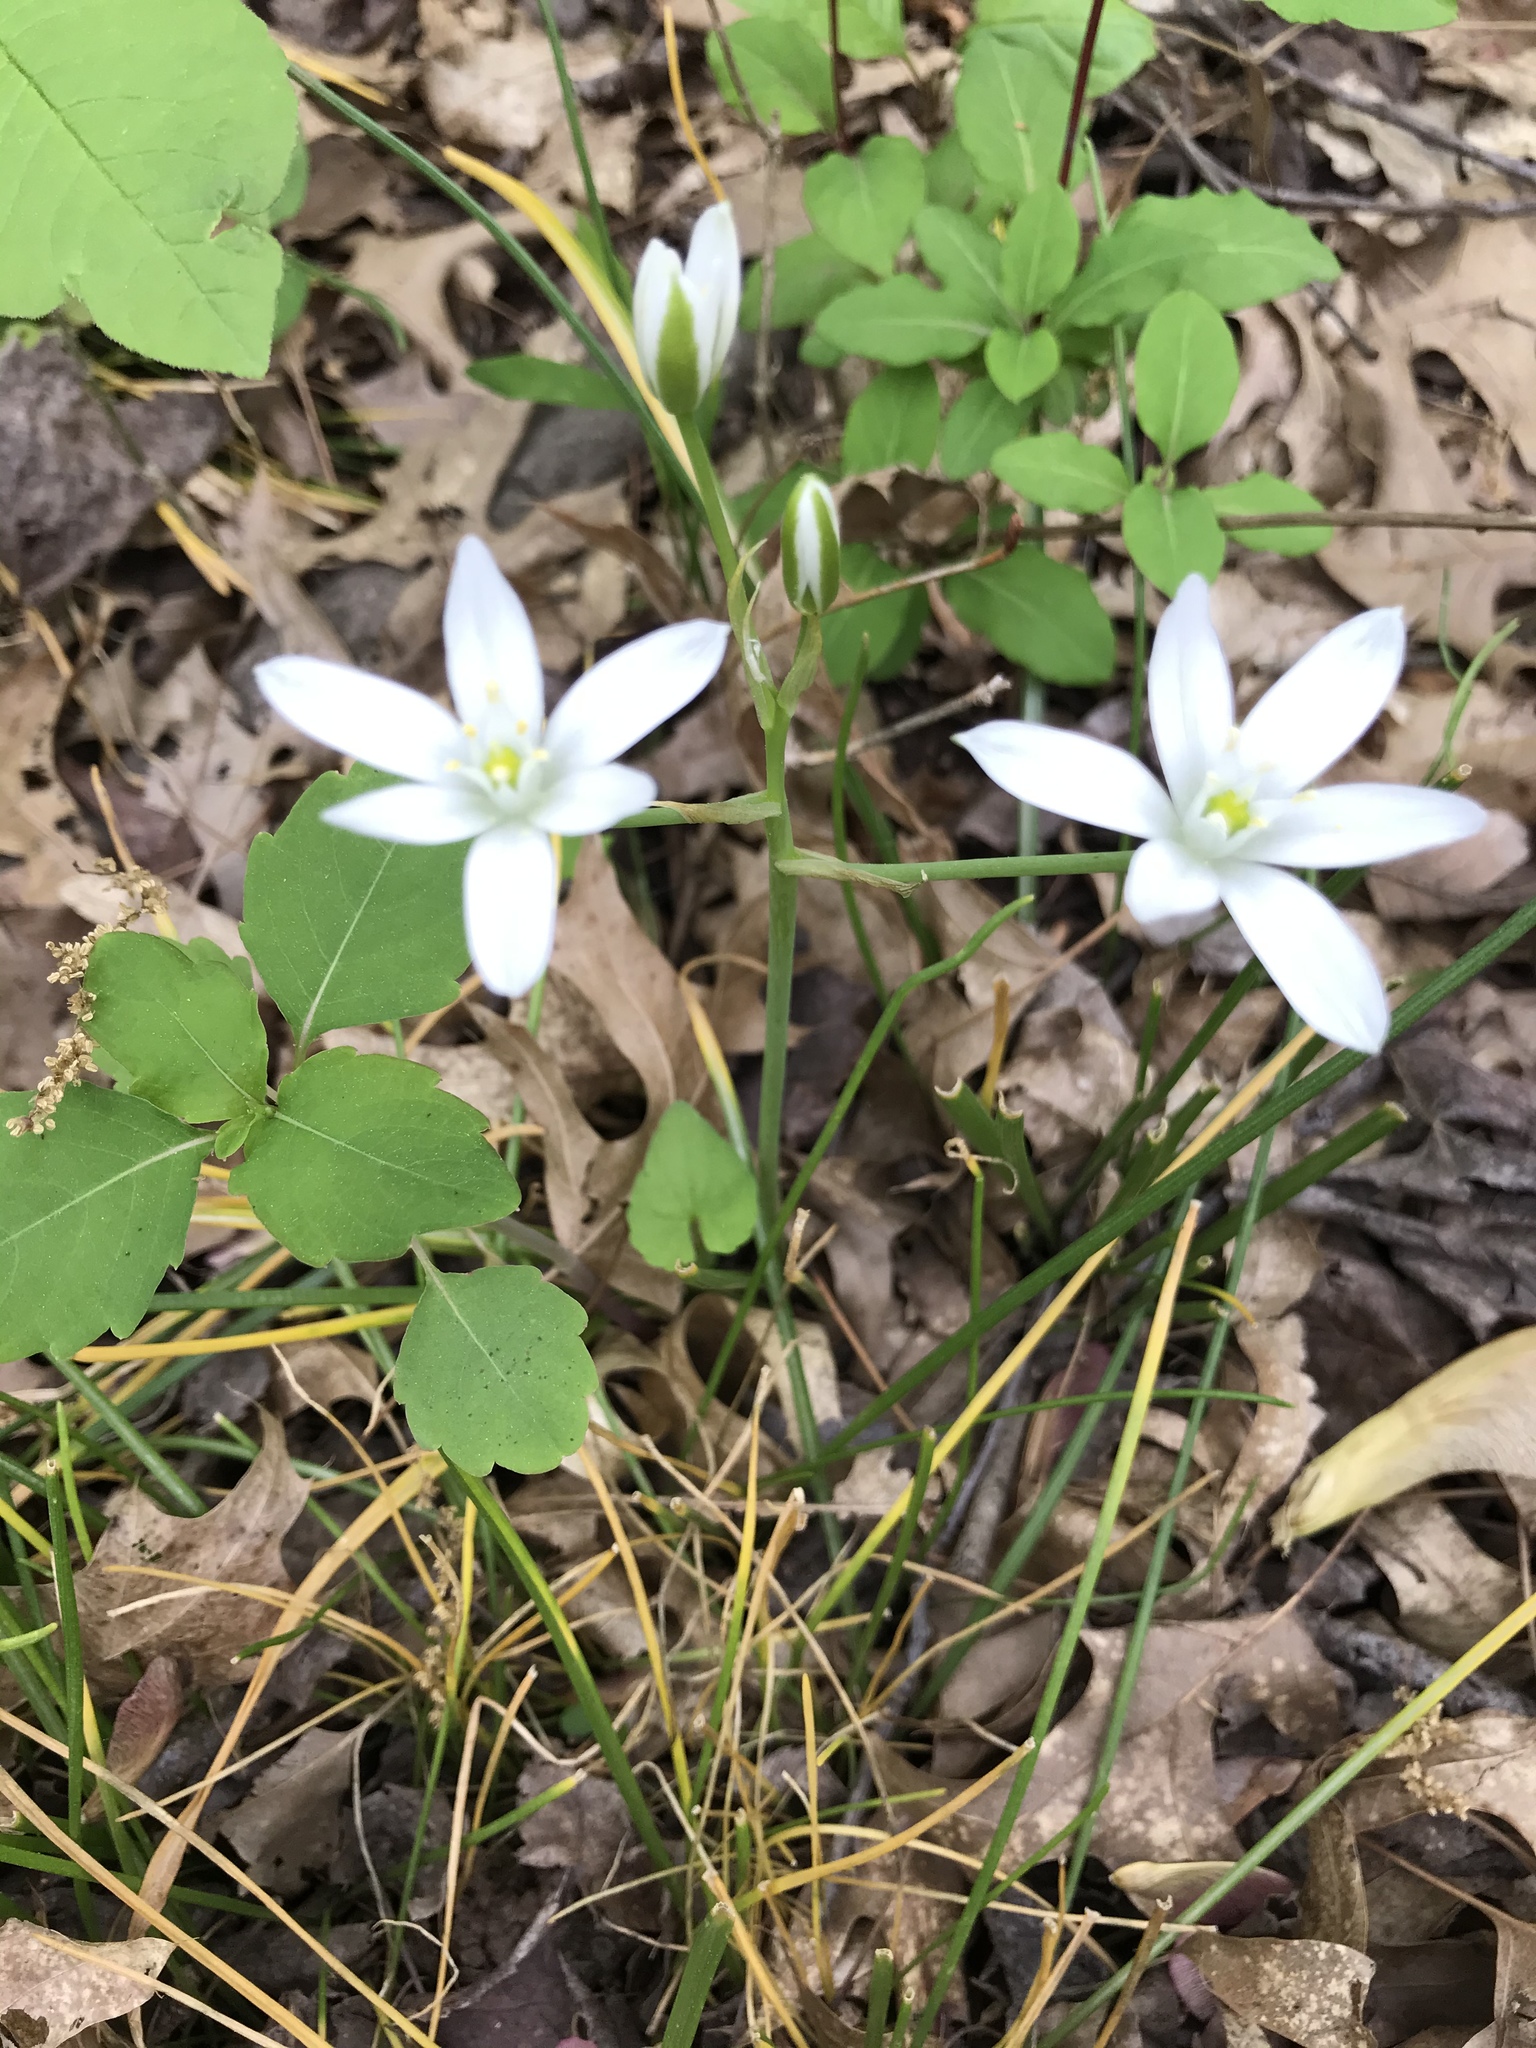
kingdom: Plantae
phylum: Tracheophyta
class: Liliopsida
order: Asparagales
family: Asparagaceae
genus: Ornithogalum
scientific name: Ornithogalum umbellatum
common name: Garden star-of-bethlehem
